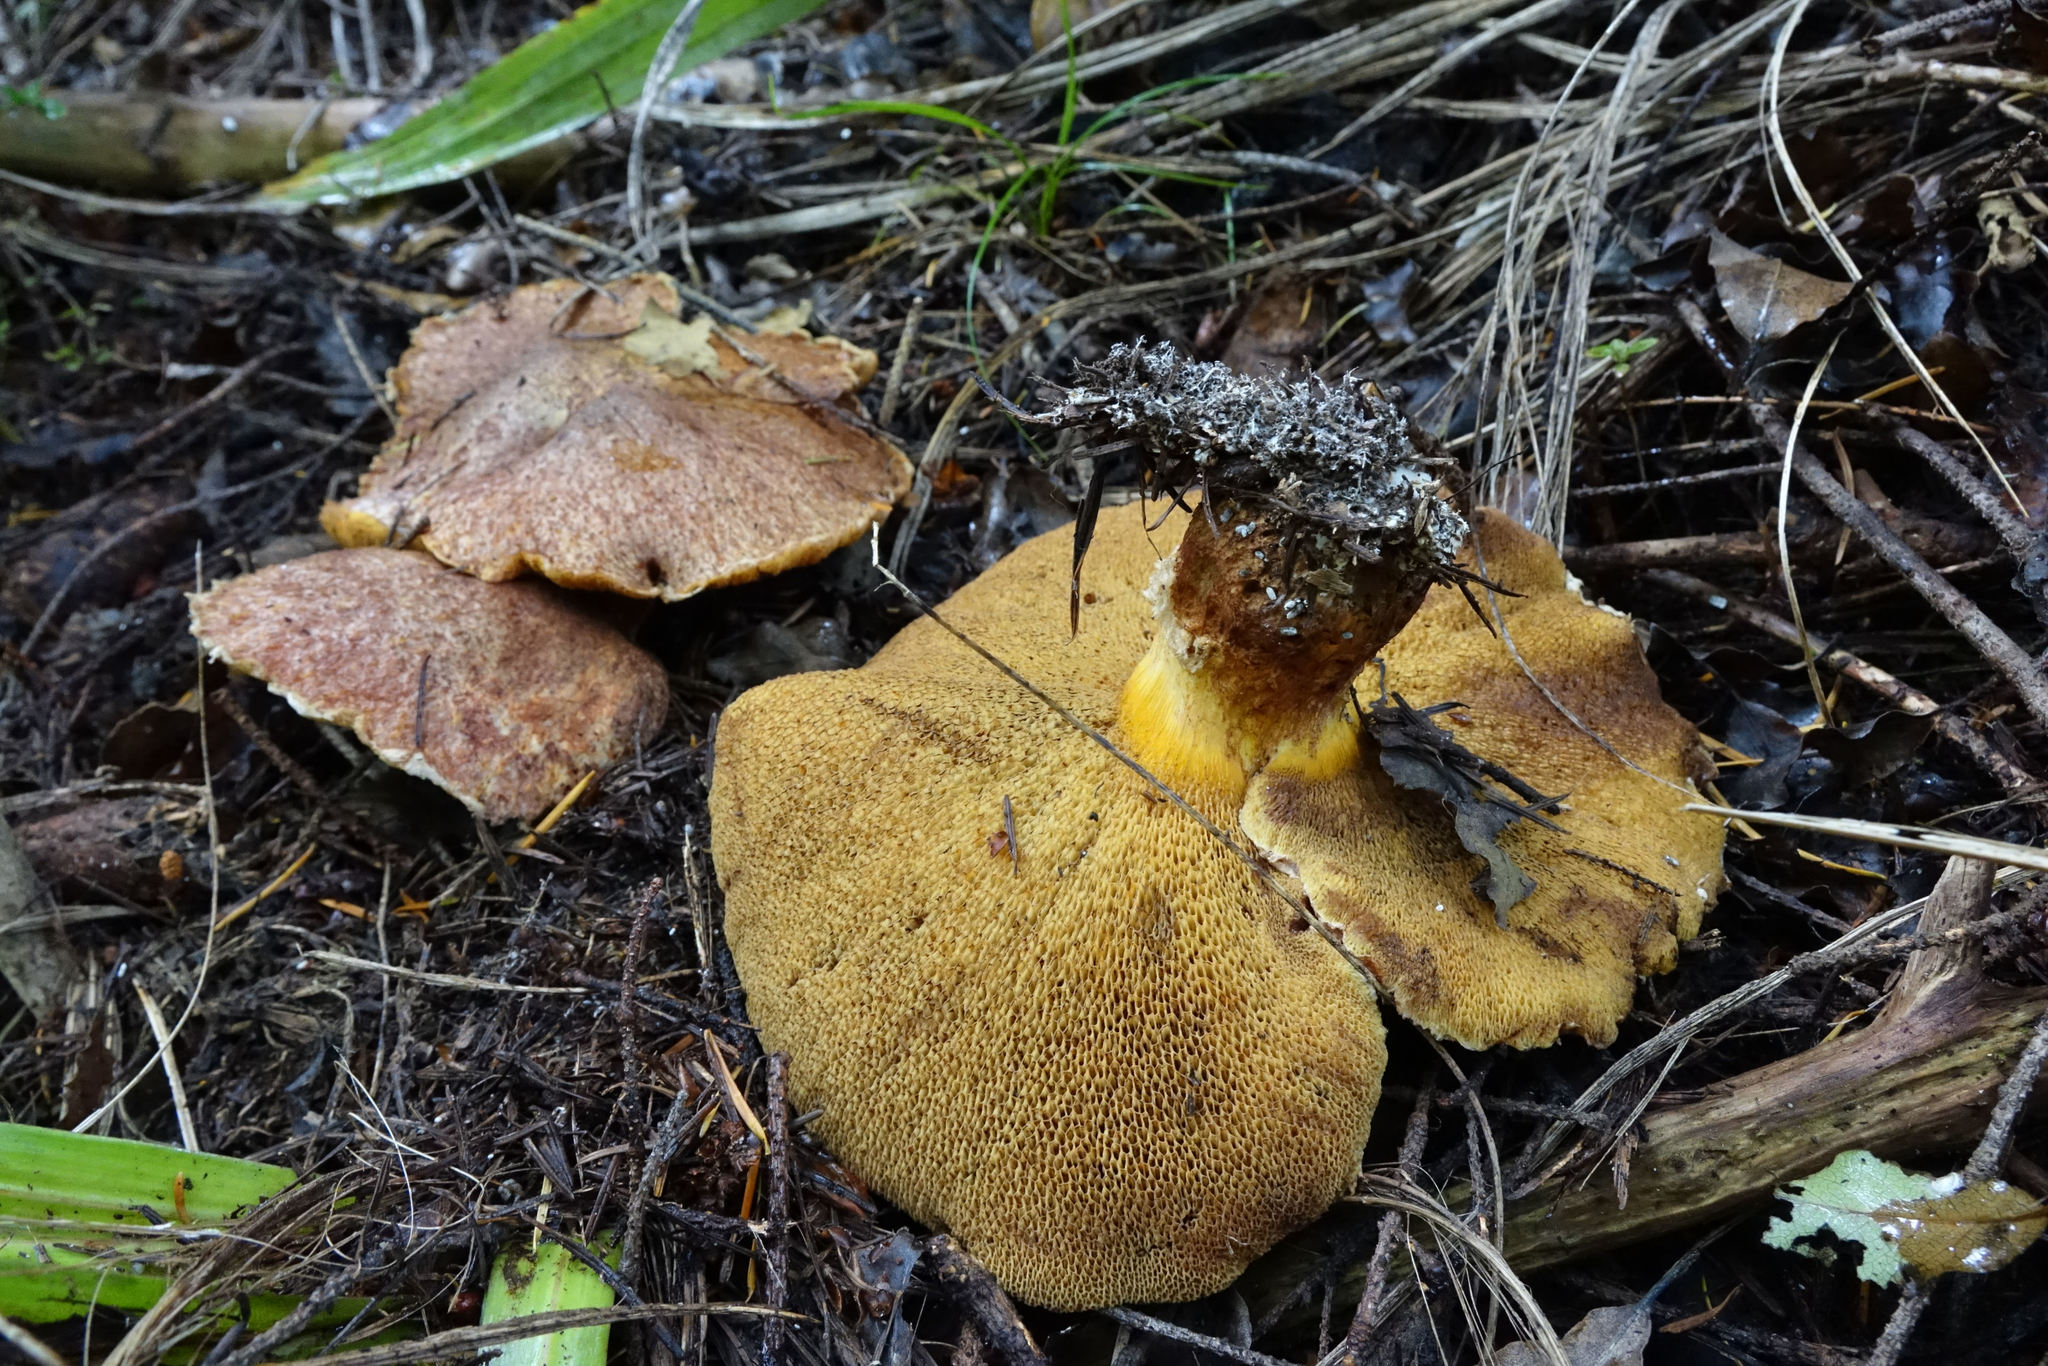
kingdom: Fungi
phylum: Basidiomycota
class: Agaricomycetes
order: Boletales
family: Suillaceae
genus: Suillus
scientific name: Suillus lakei
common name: Western painted suillus
